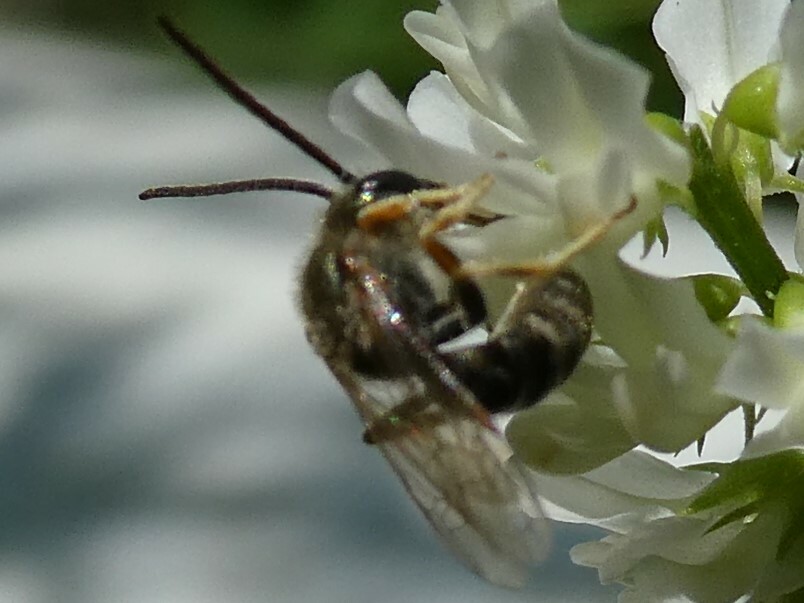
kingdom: Animalia
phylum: Arthropoda
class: Insecta
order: Hymenoptera
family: Halictidae
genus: Halictus
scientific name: Halictus confusus
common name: Southern bronze furrow bee
